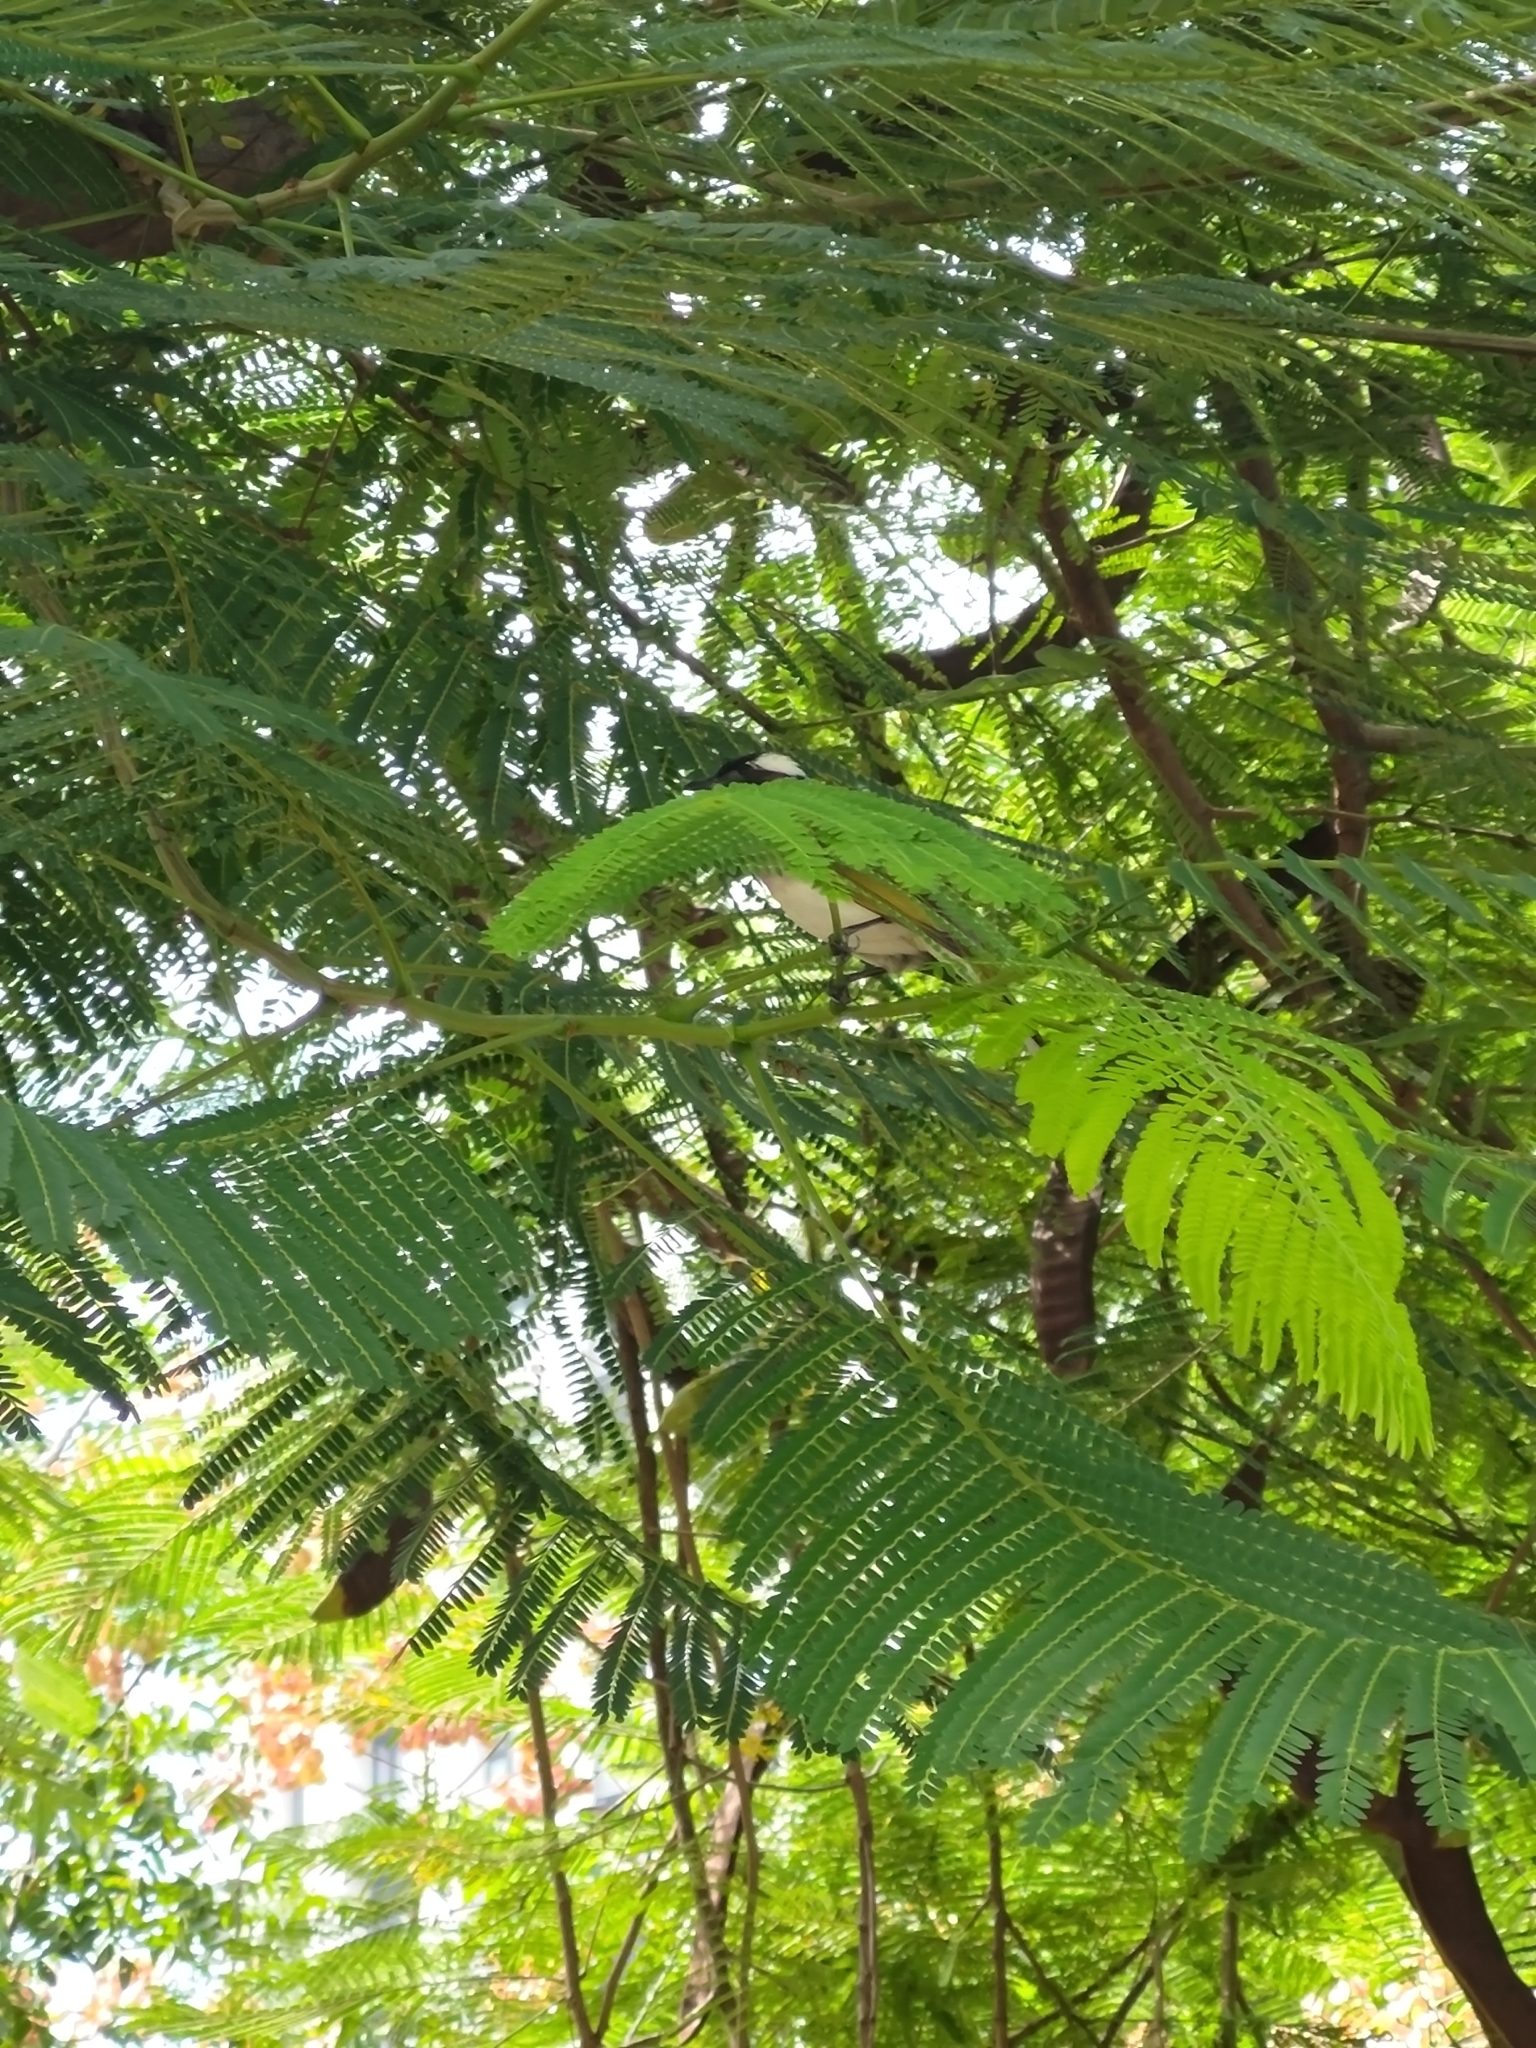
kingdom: Animalia
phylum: Chordata
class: Aves
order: Passeriformes
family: Pycnonotidae
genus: Pycnonotus
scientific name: Pycnonotus sinensis
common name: Light-vented bulbul
